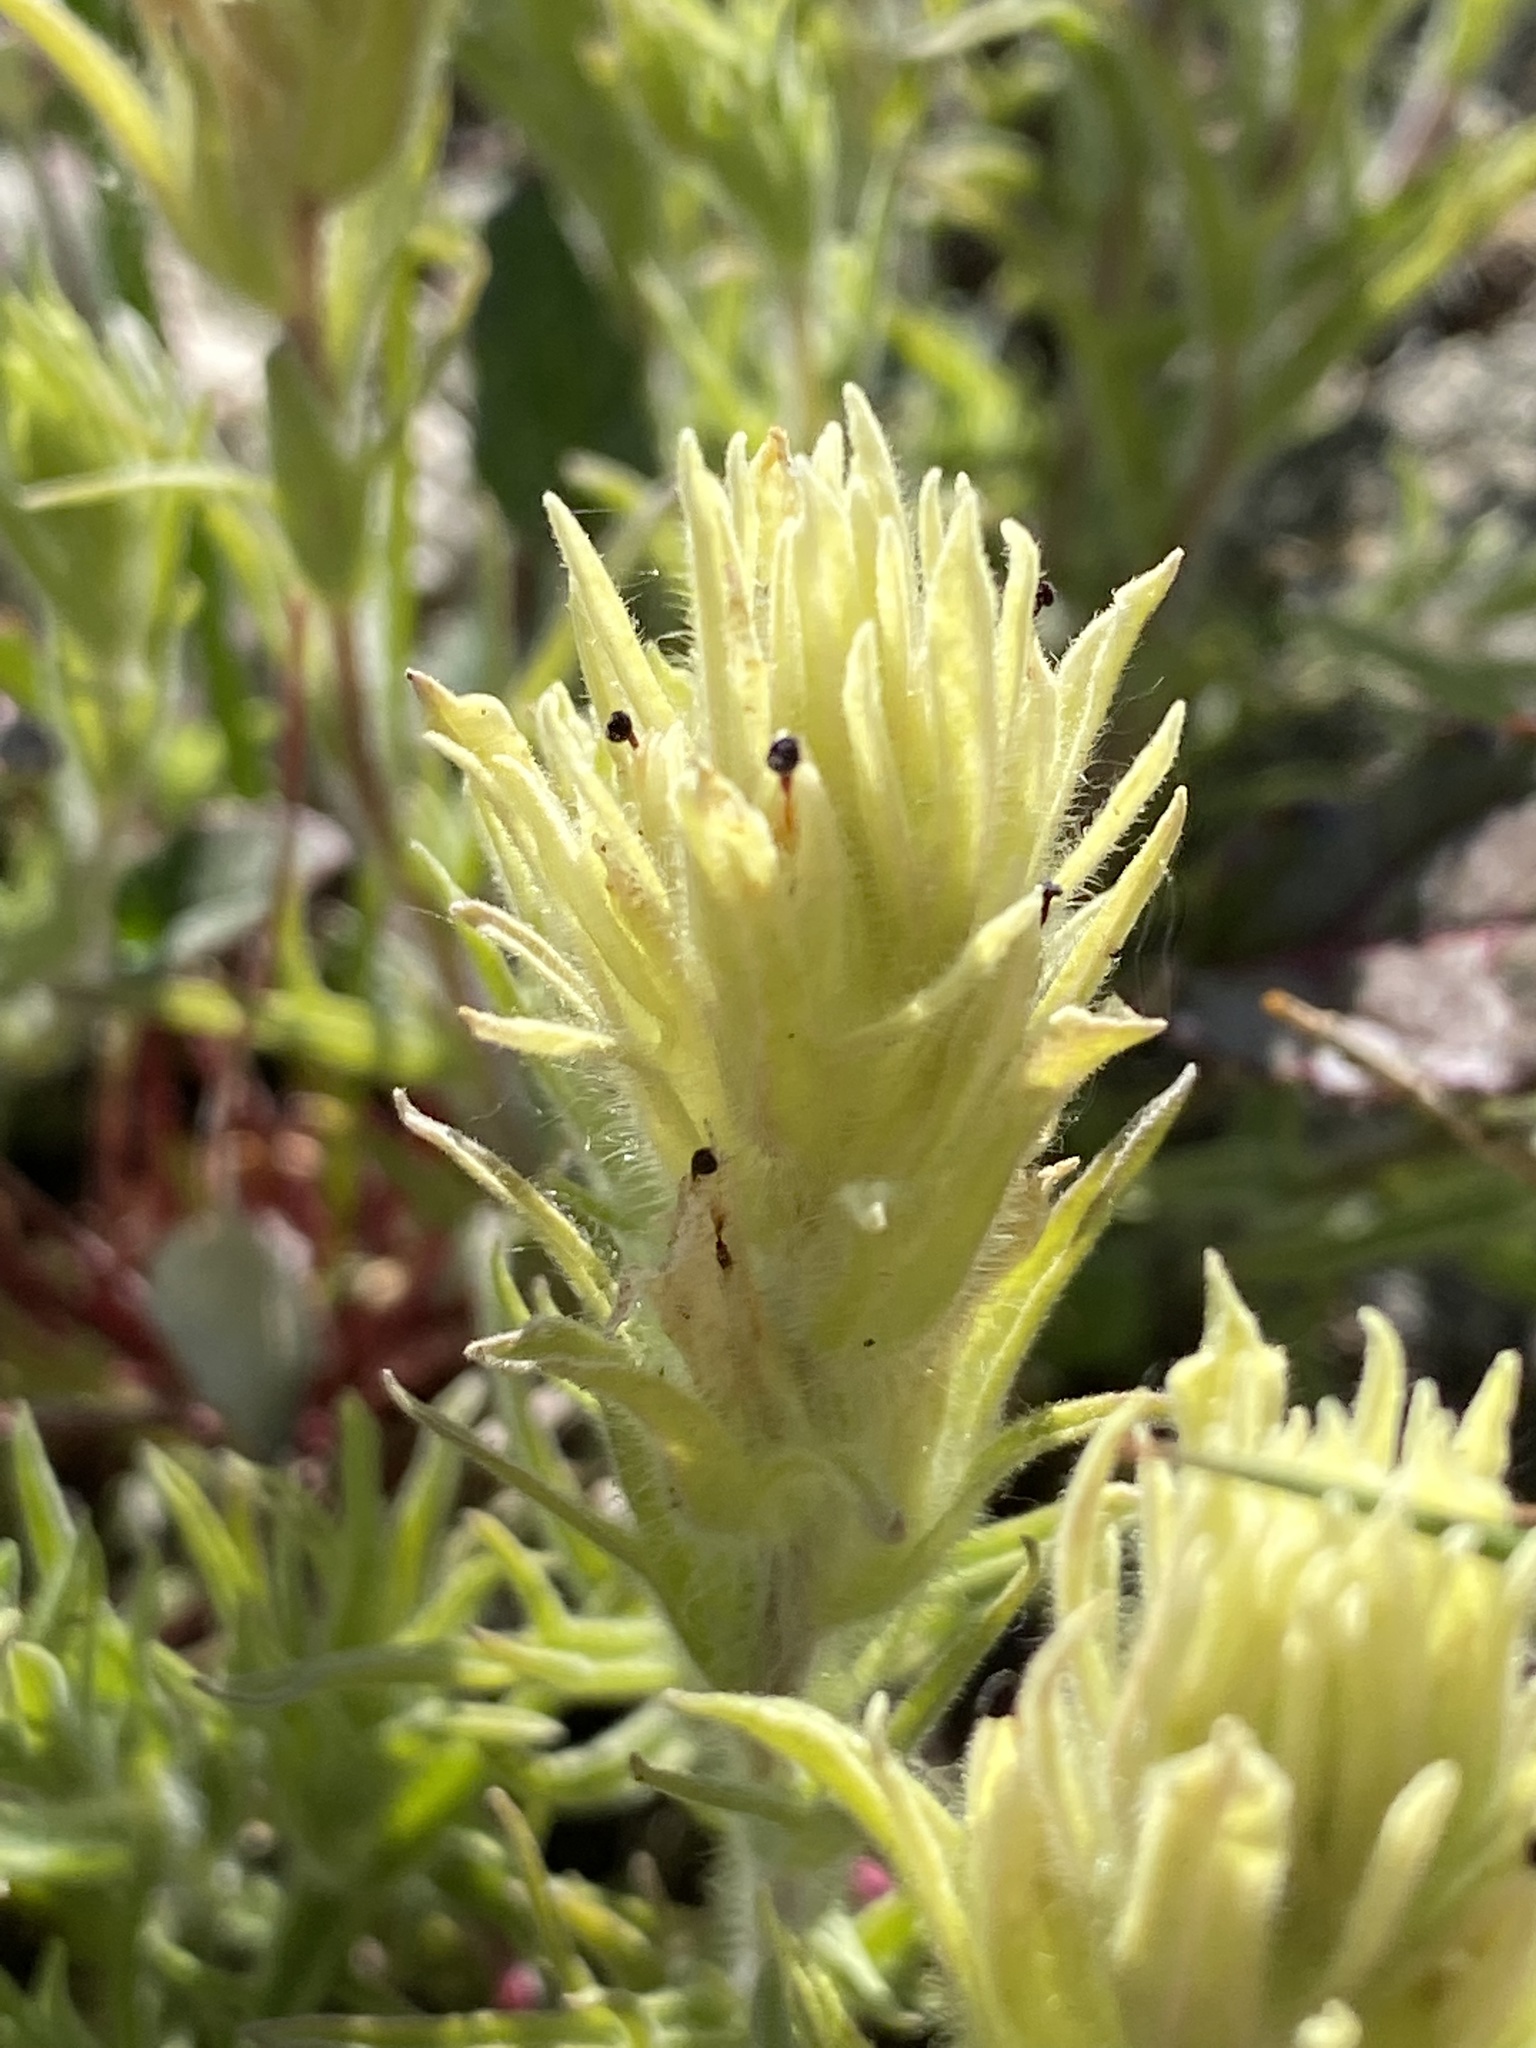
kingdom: Plantae
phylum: Tracheophyta
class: Magnoliopsida
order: Lamiales
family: Orobanchaceae
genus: Castilleja
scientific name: Castilleja nana
